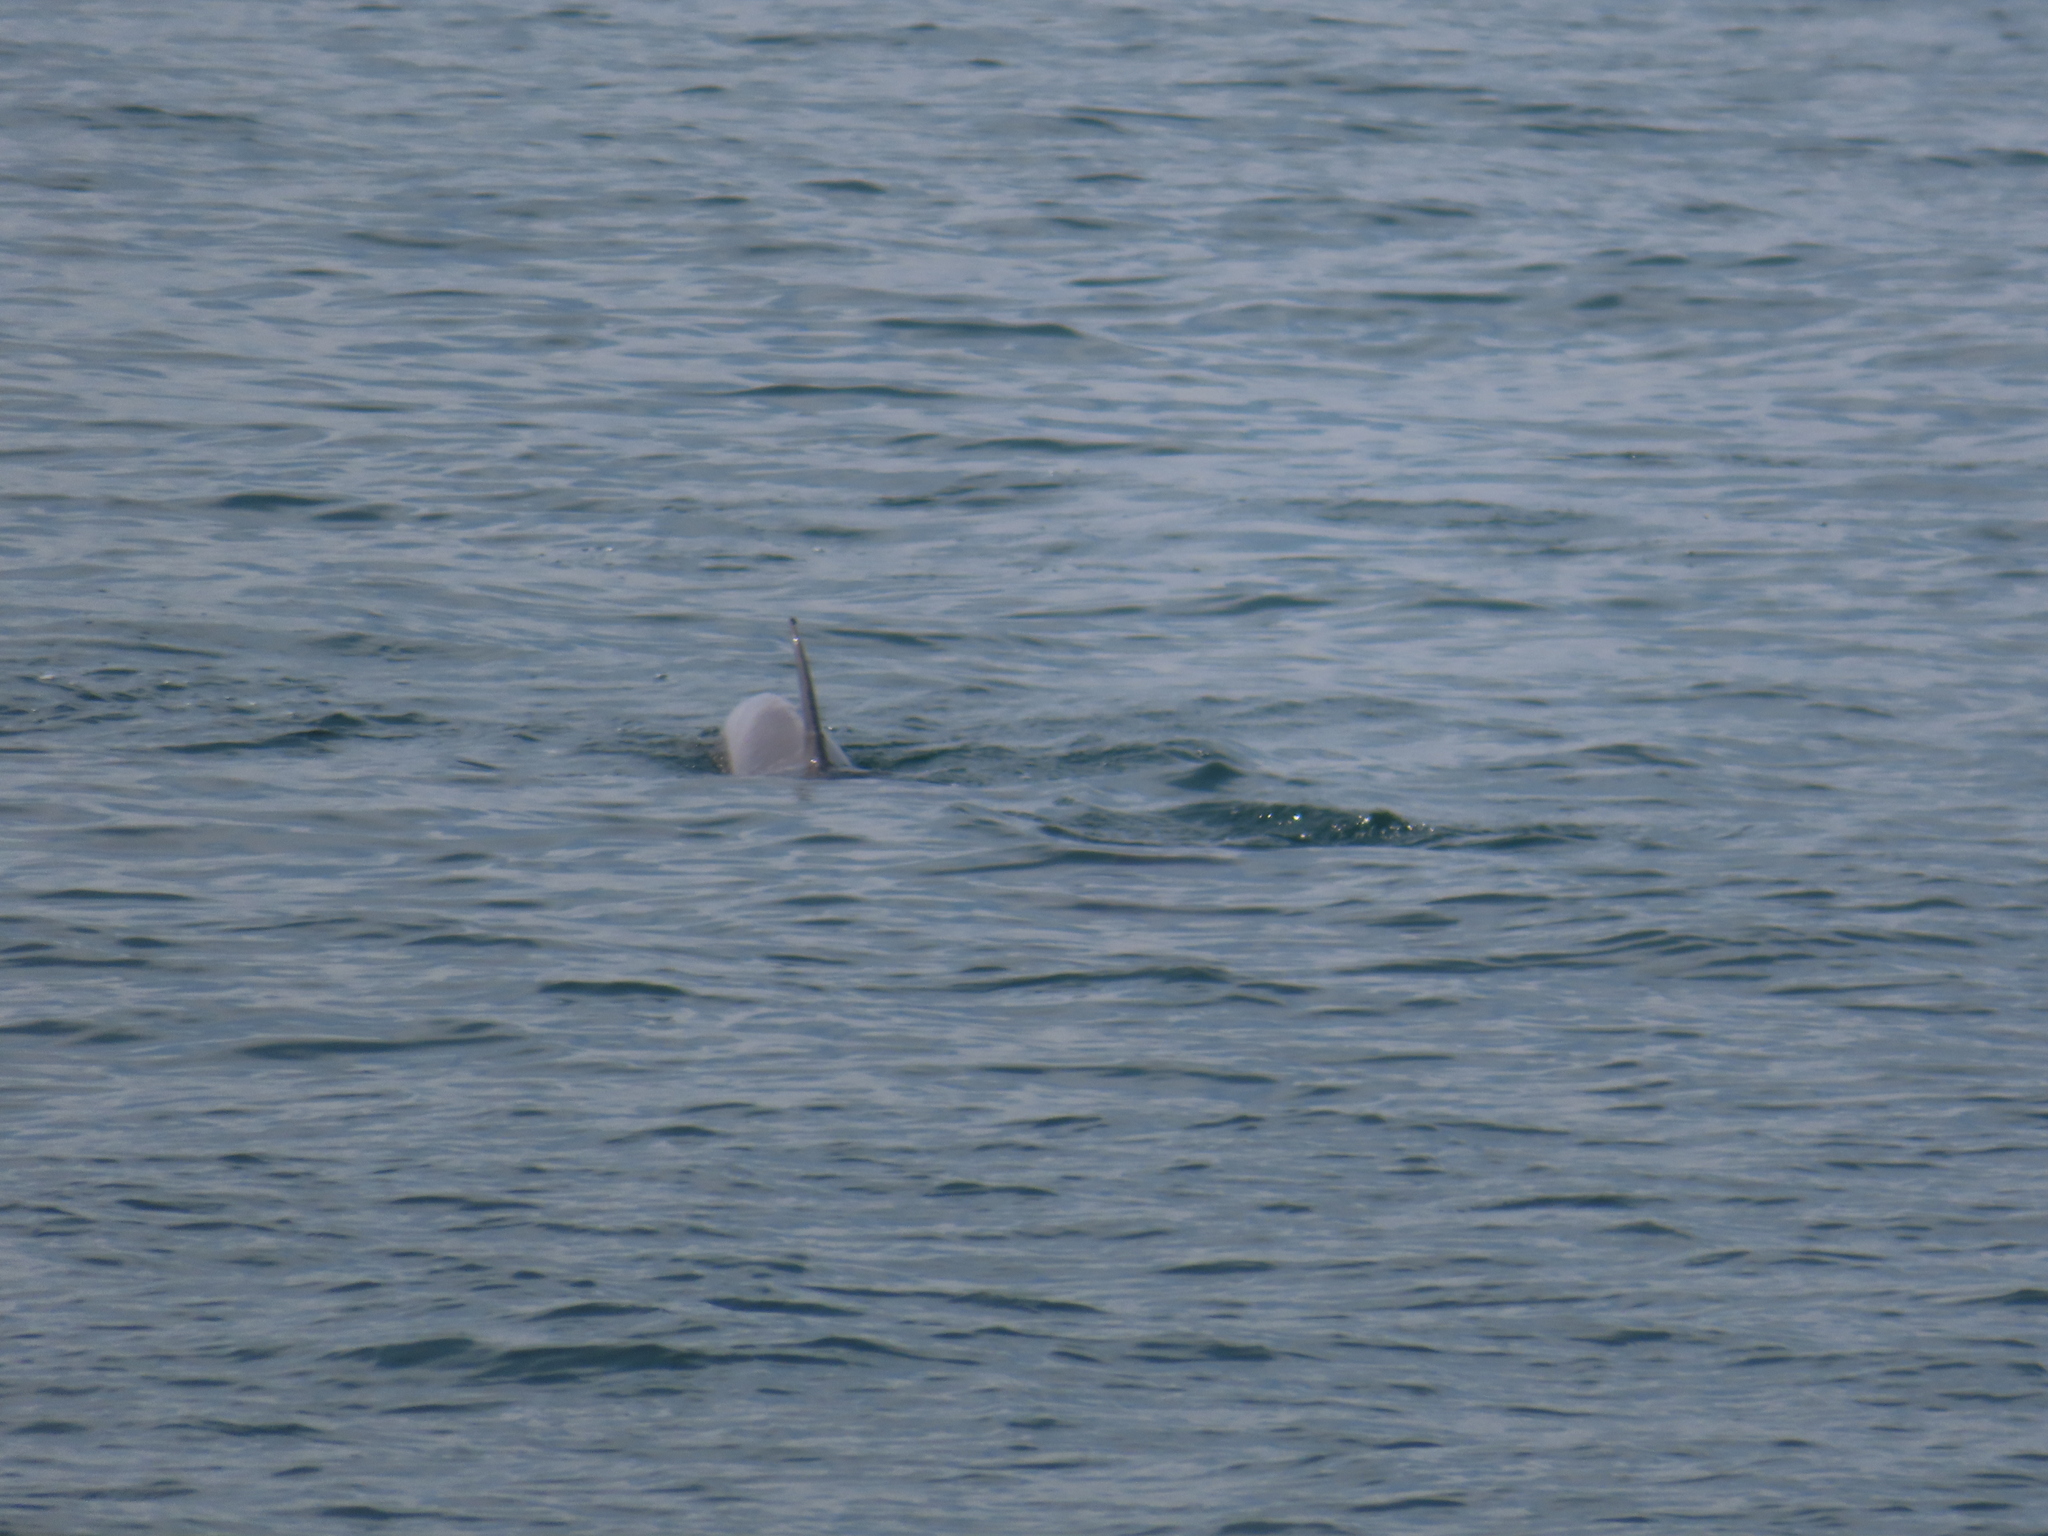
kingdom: Animalia
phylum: Chordata
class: Mammalia
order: Cetacea
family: Delphinidae
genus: Tursiops
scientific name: Tursiops truncatus
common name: Bottlenose dolphin
